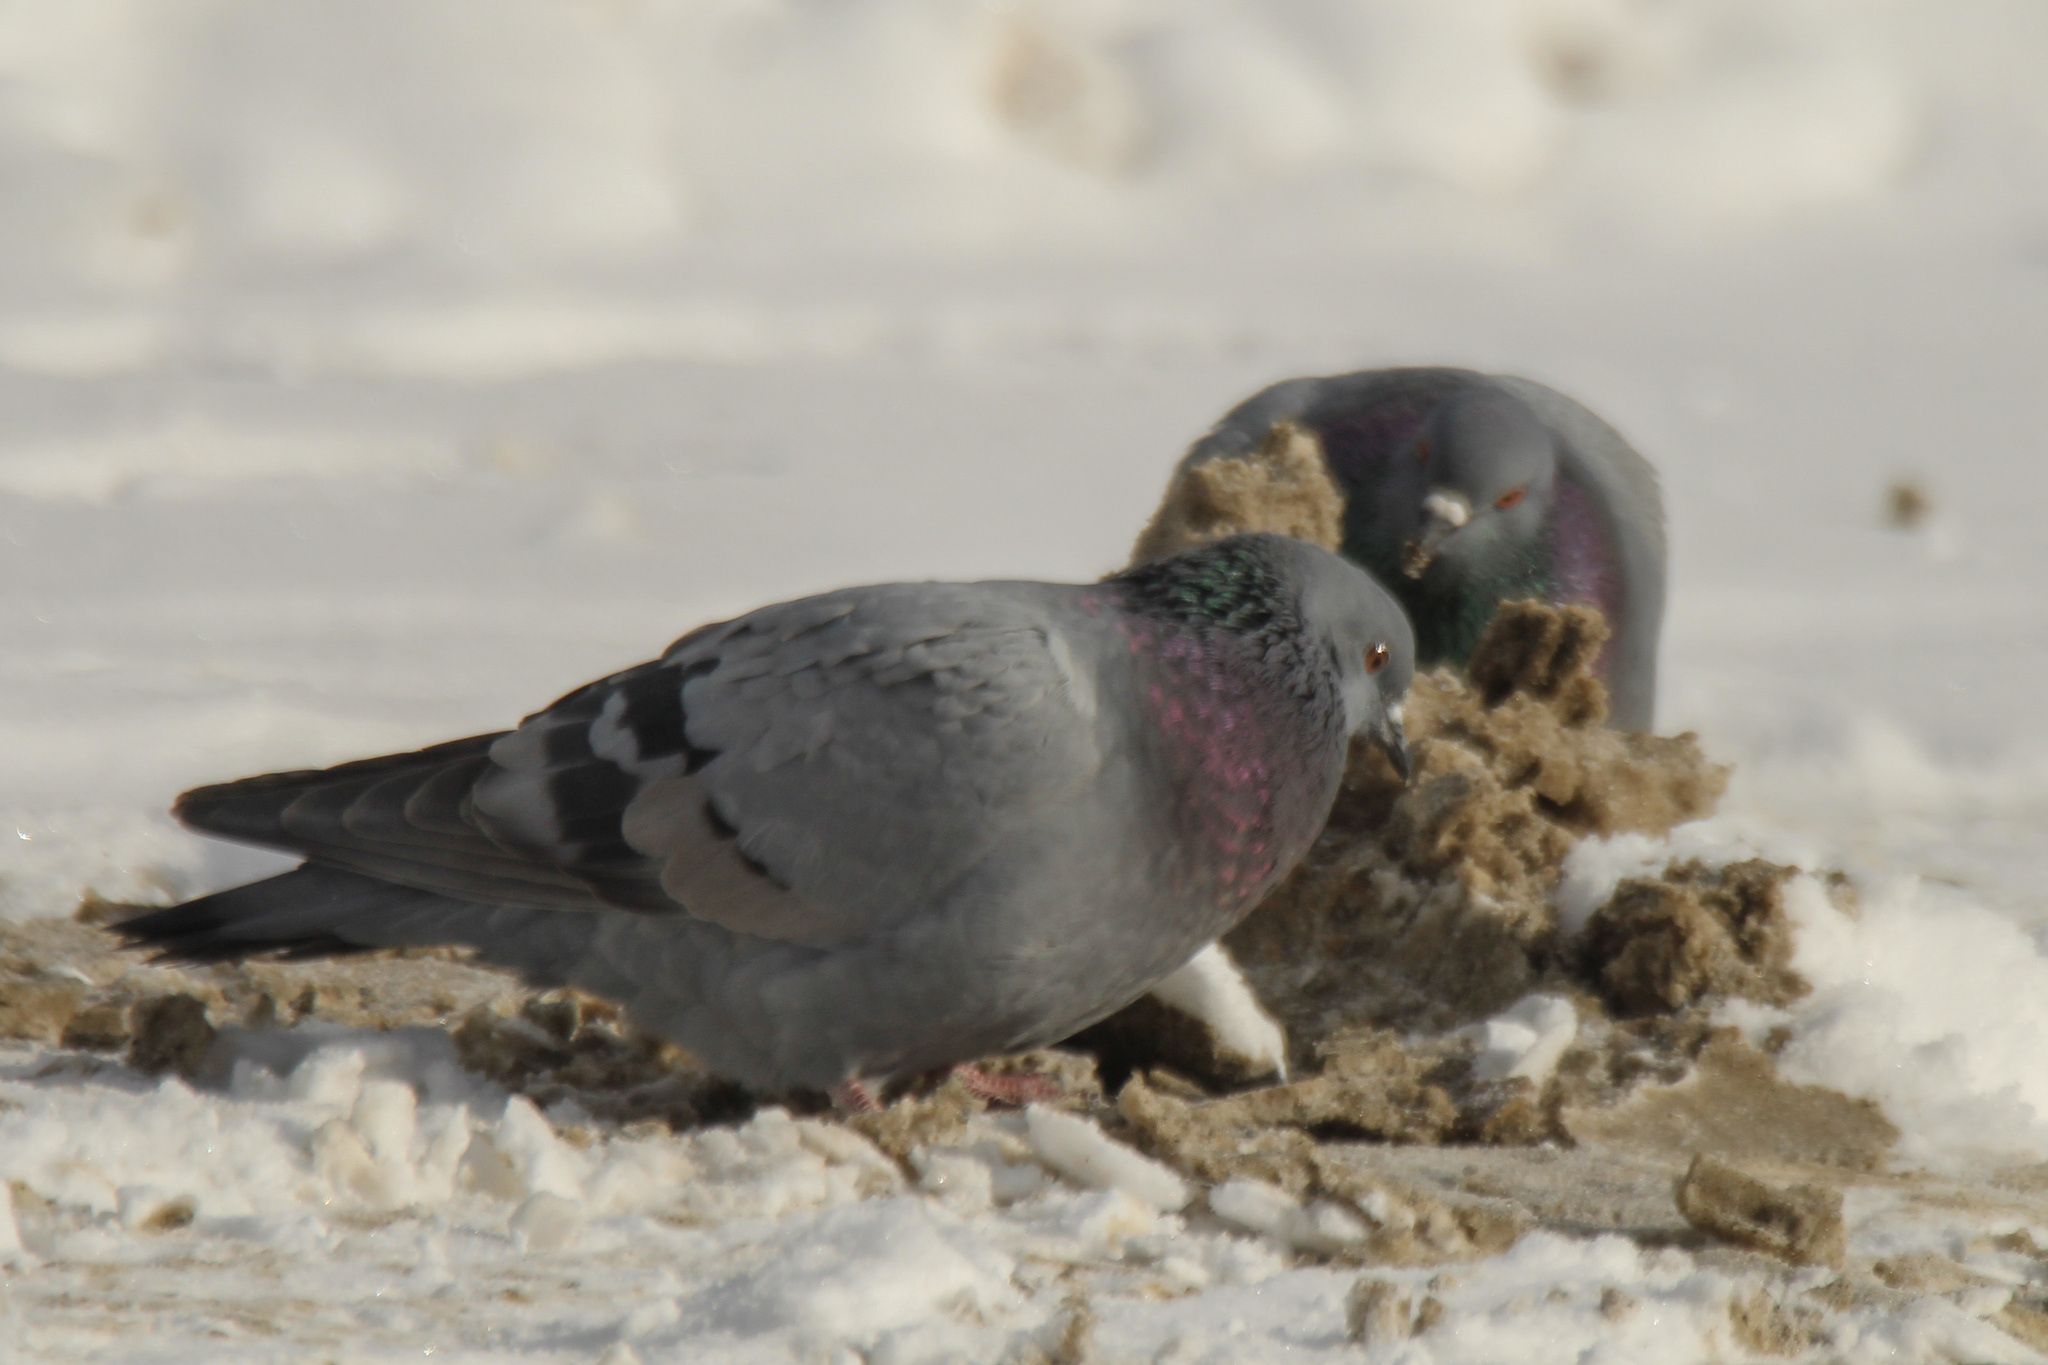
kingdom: Animalia
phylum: Chordata
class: Aves
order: Columbiformes
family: Columbidae
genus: Columba
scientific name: Columba livia
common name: Rock pigeon
